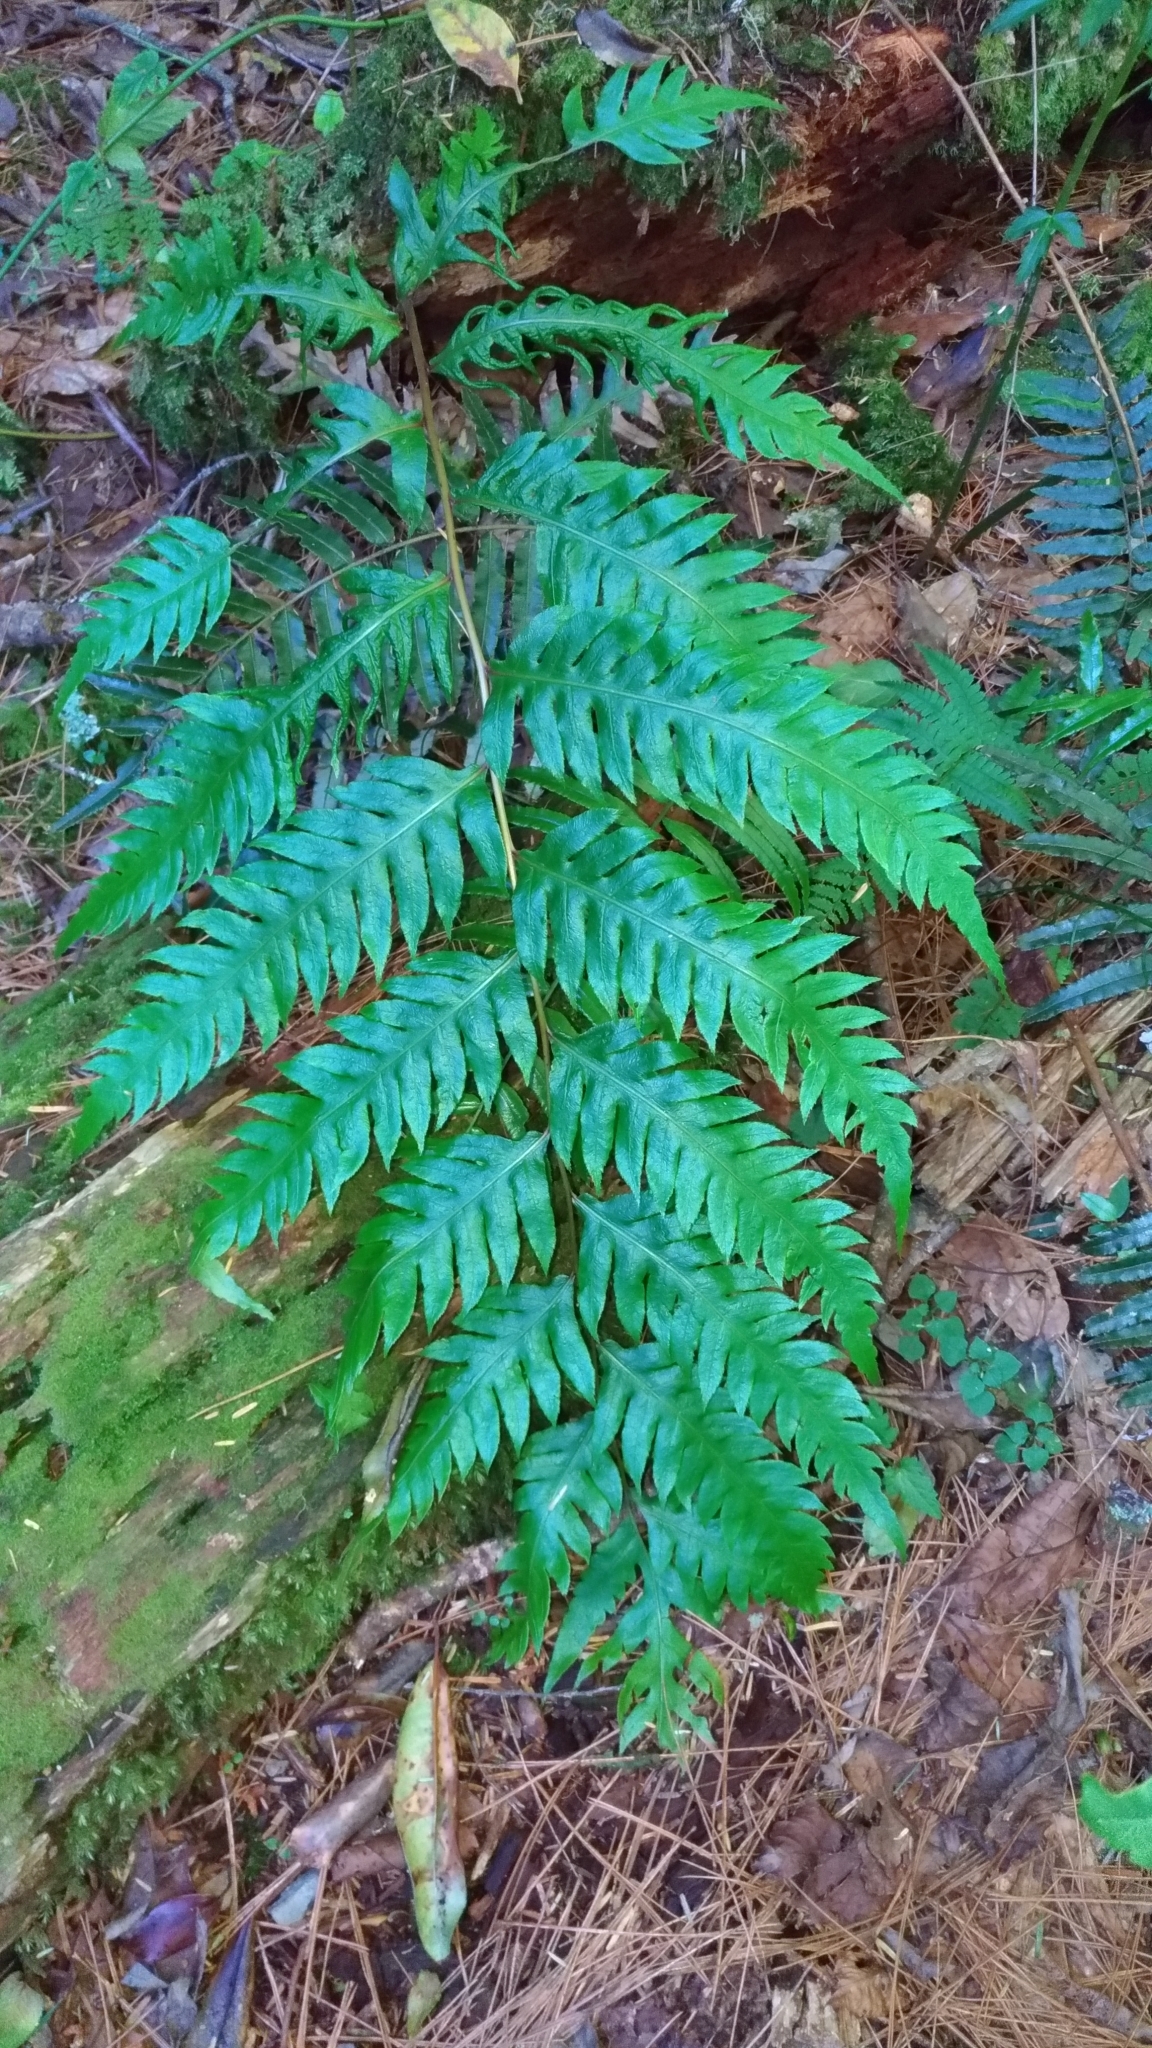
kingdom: Plantae
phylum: Tracheophyta
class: Polypodiopsida
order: Polypodiales
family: Blechnaceae
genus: Woodwardia
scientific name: Woodwardia unigemmata
